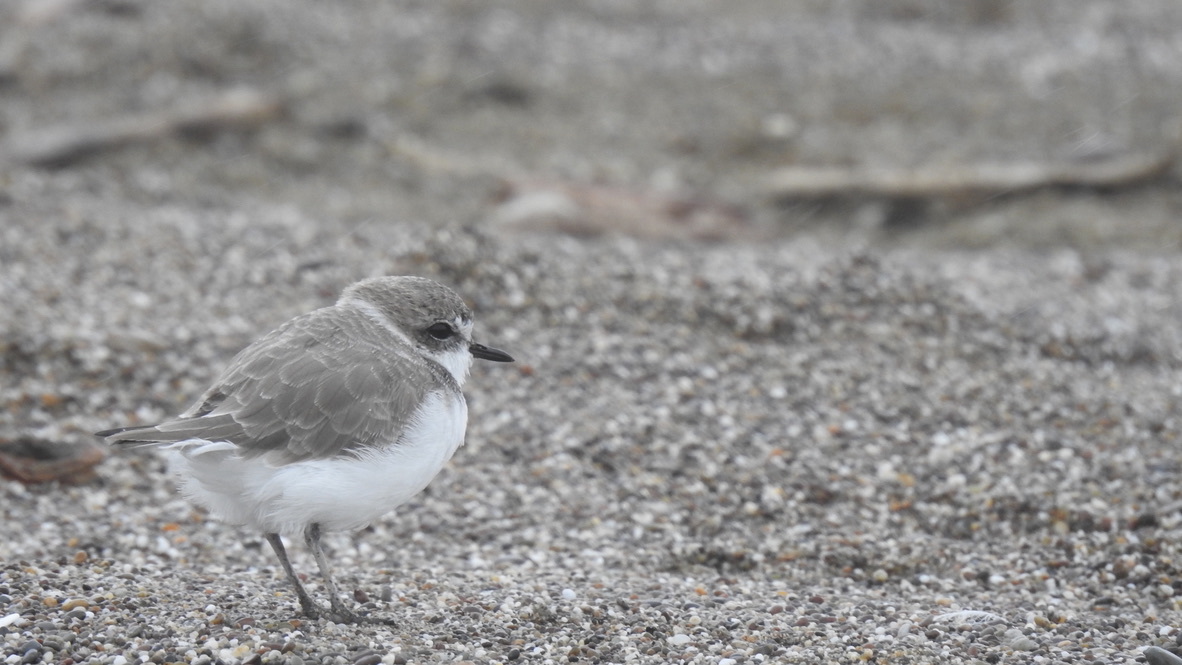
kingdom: Animalia
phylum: Chordata
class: Aves
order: Charadriiformes
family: Charadriidae
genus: Anarhynchus
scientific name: Anarhynchus
